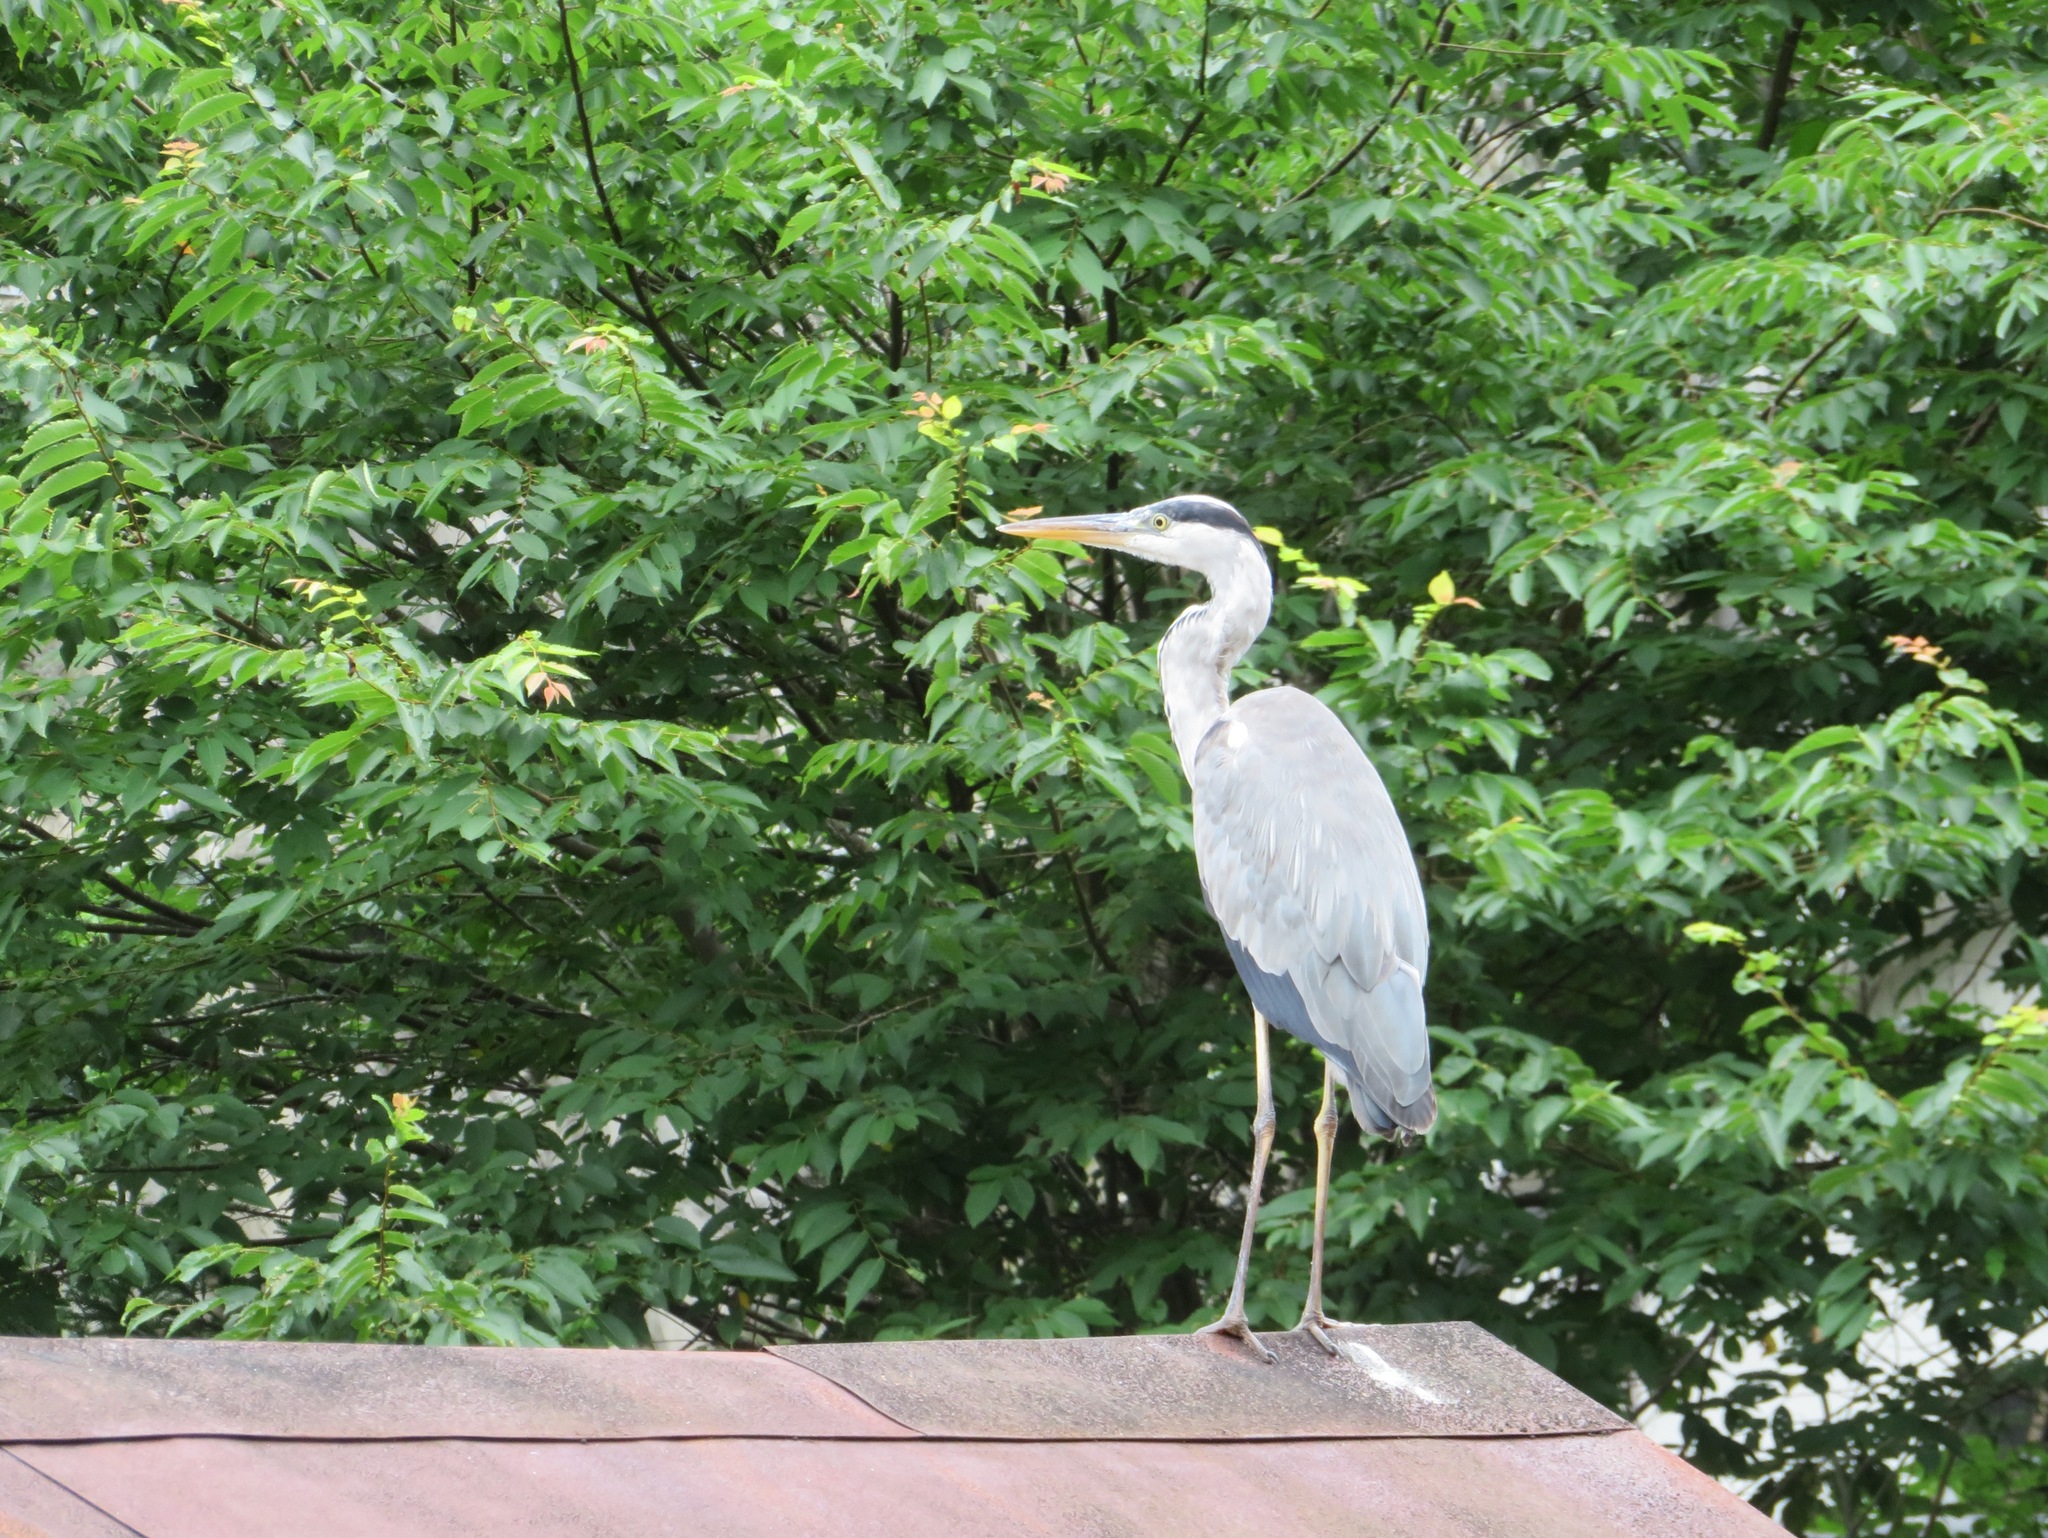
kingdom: Animalia
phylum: Chordata
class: Aves
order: Pelecaniformes
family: Ardeidae
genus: Ardea
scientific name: Ardea cinerea
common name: Grey heron
